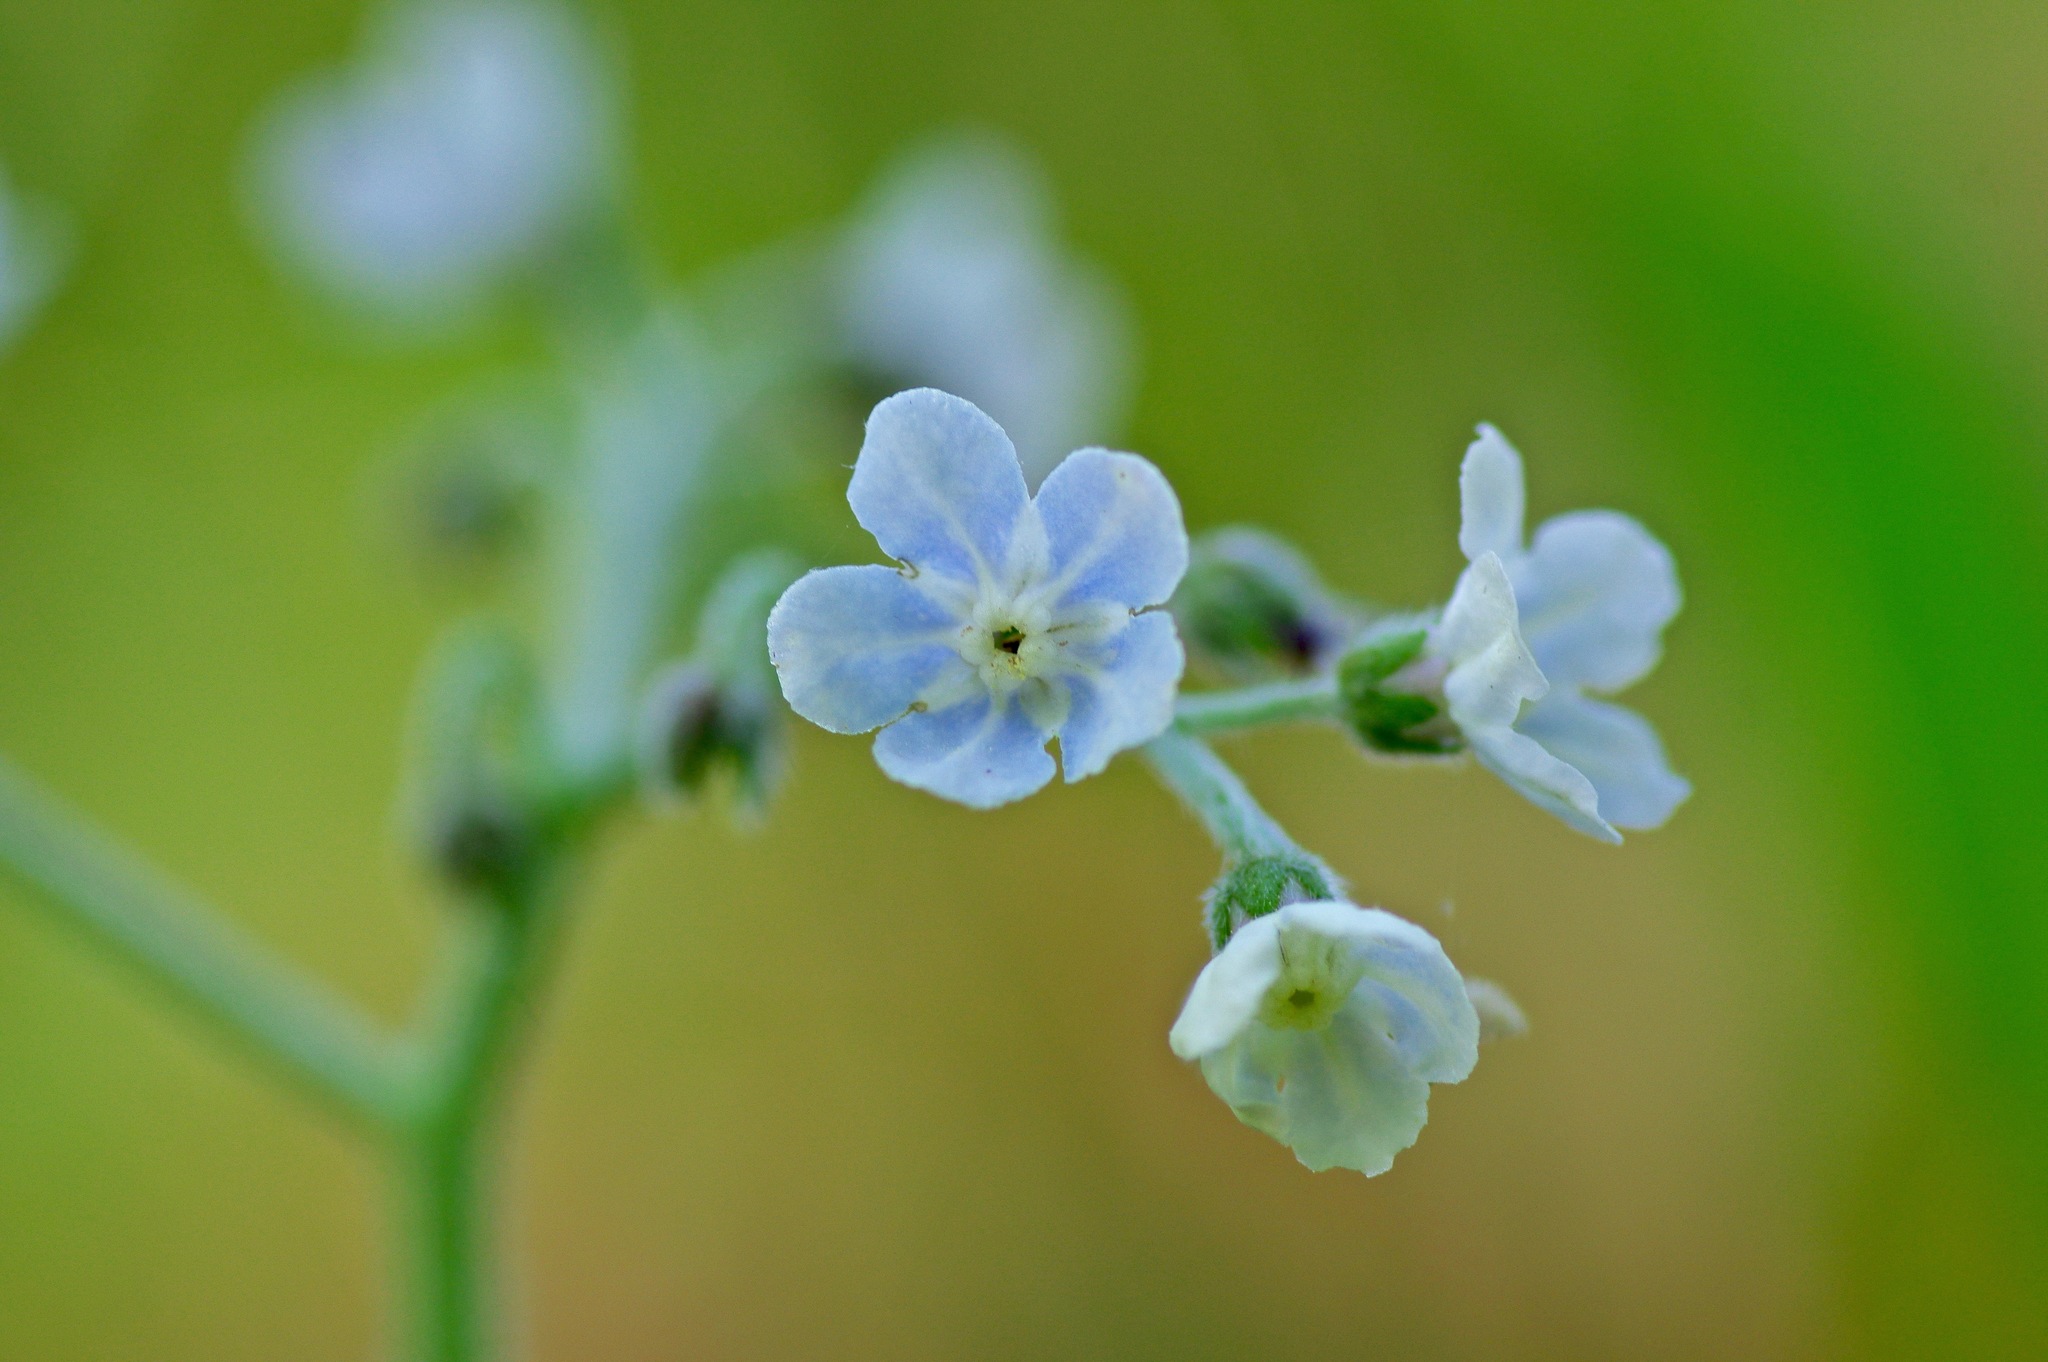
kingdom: Plantae
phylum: Tracheophyta
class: Magnoliopsida
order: Boraginales
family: Boraginaceae
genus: Andersonglossum
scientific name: Andersonglossum virginianum
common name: Wild comfrey
